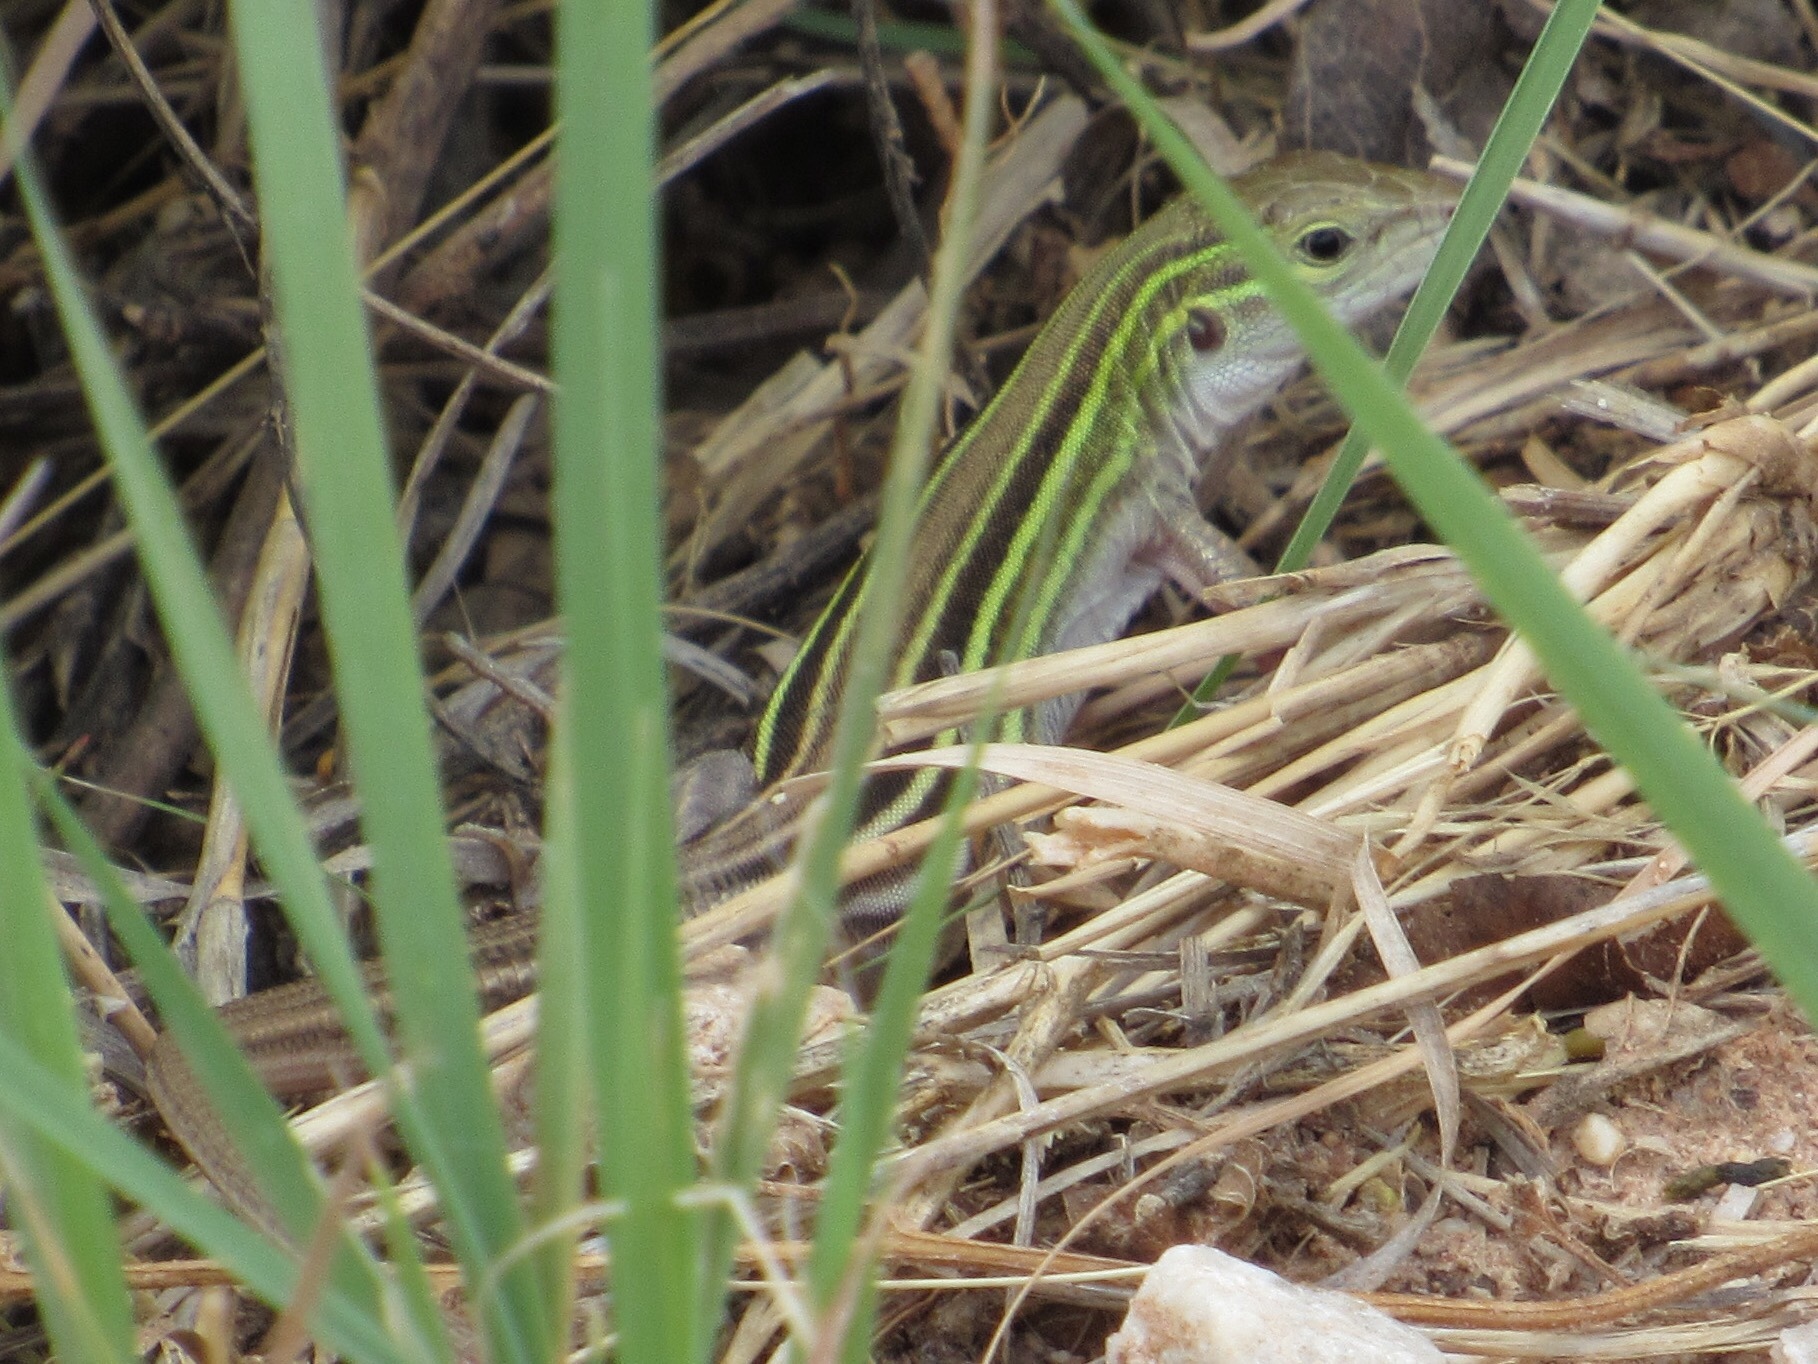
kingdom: Animalia
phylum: Chordata
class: Squamata
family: Teiidae
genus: Aspidoscelis
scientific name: Aspidoscelis sexlineatus
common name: Six-lined racerunner
